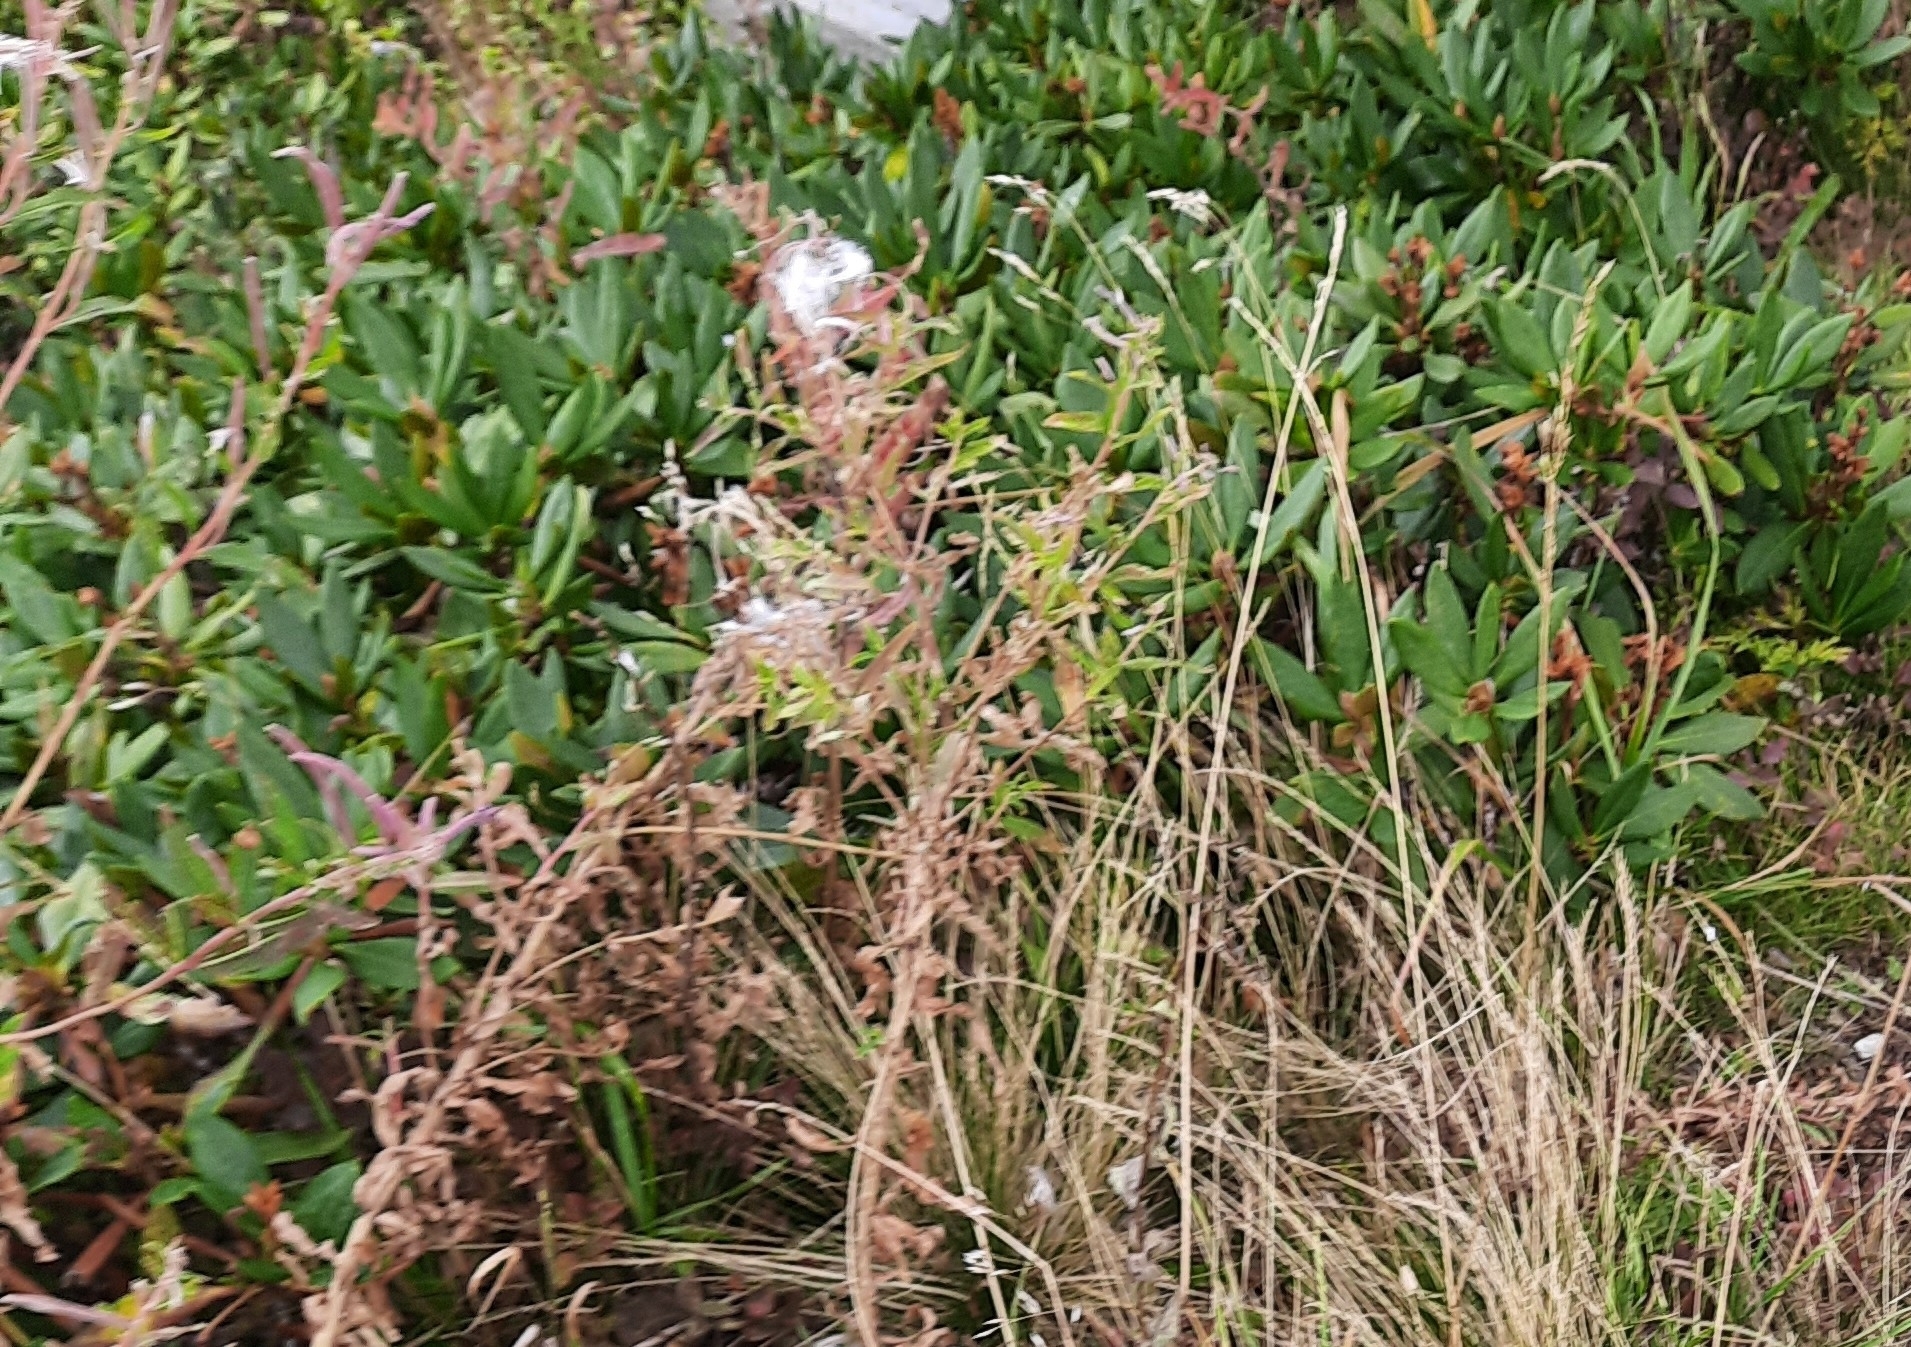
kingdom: Plantae
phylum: Tracheophyta
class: Magnoliopsida
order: Ericales
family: Ericaceae
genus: Rhododendron
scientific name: Rhododendron caucasicum
